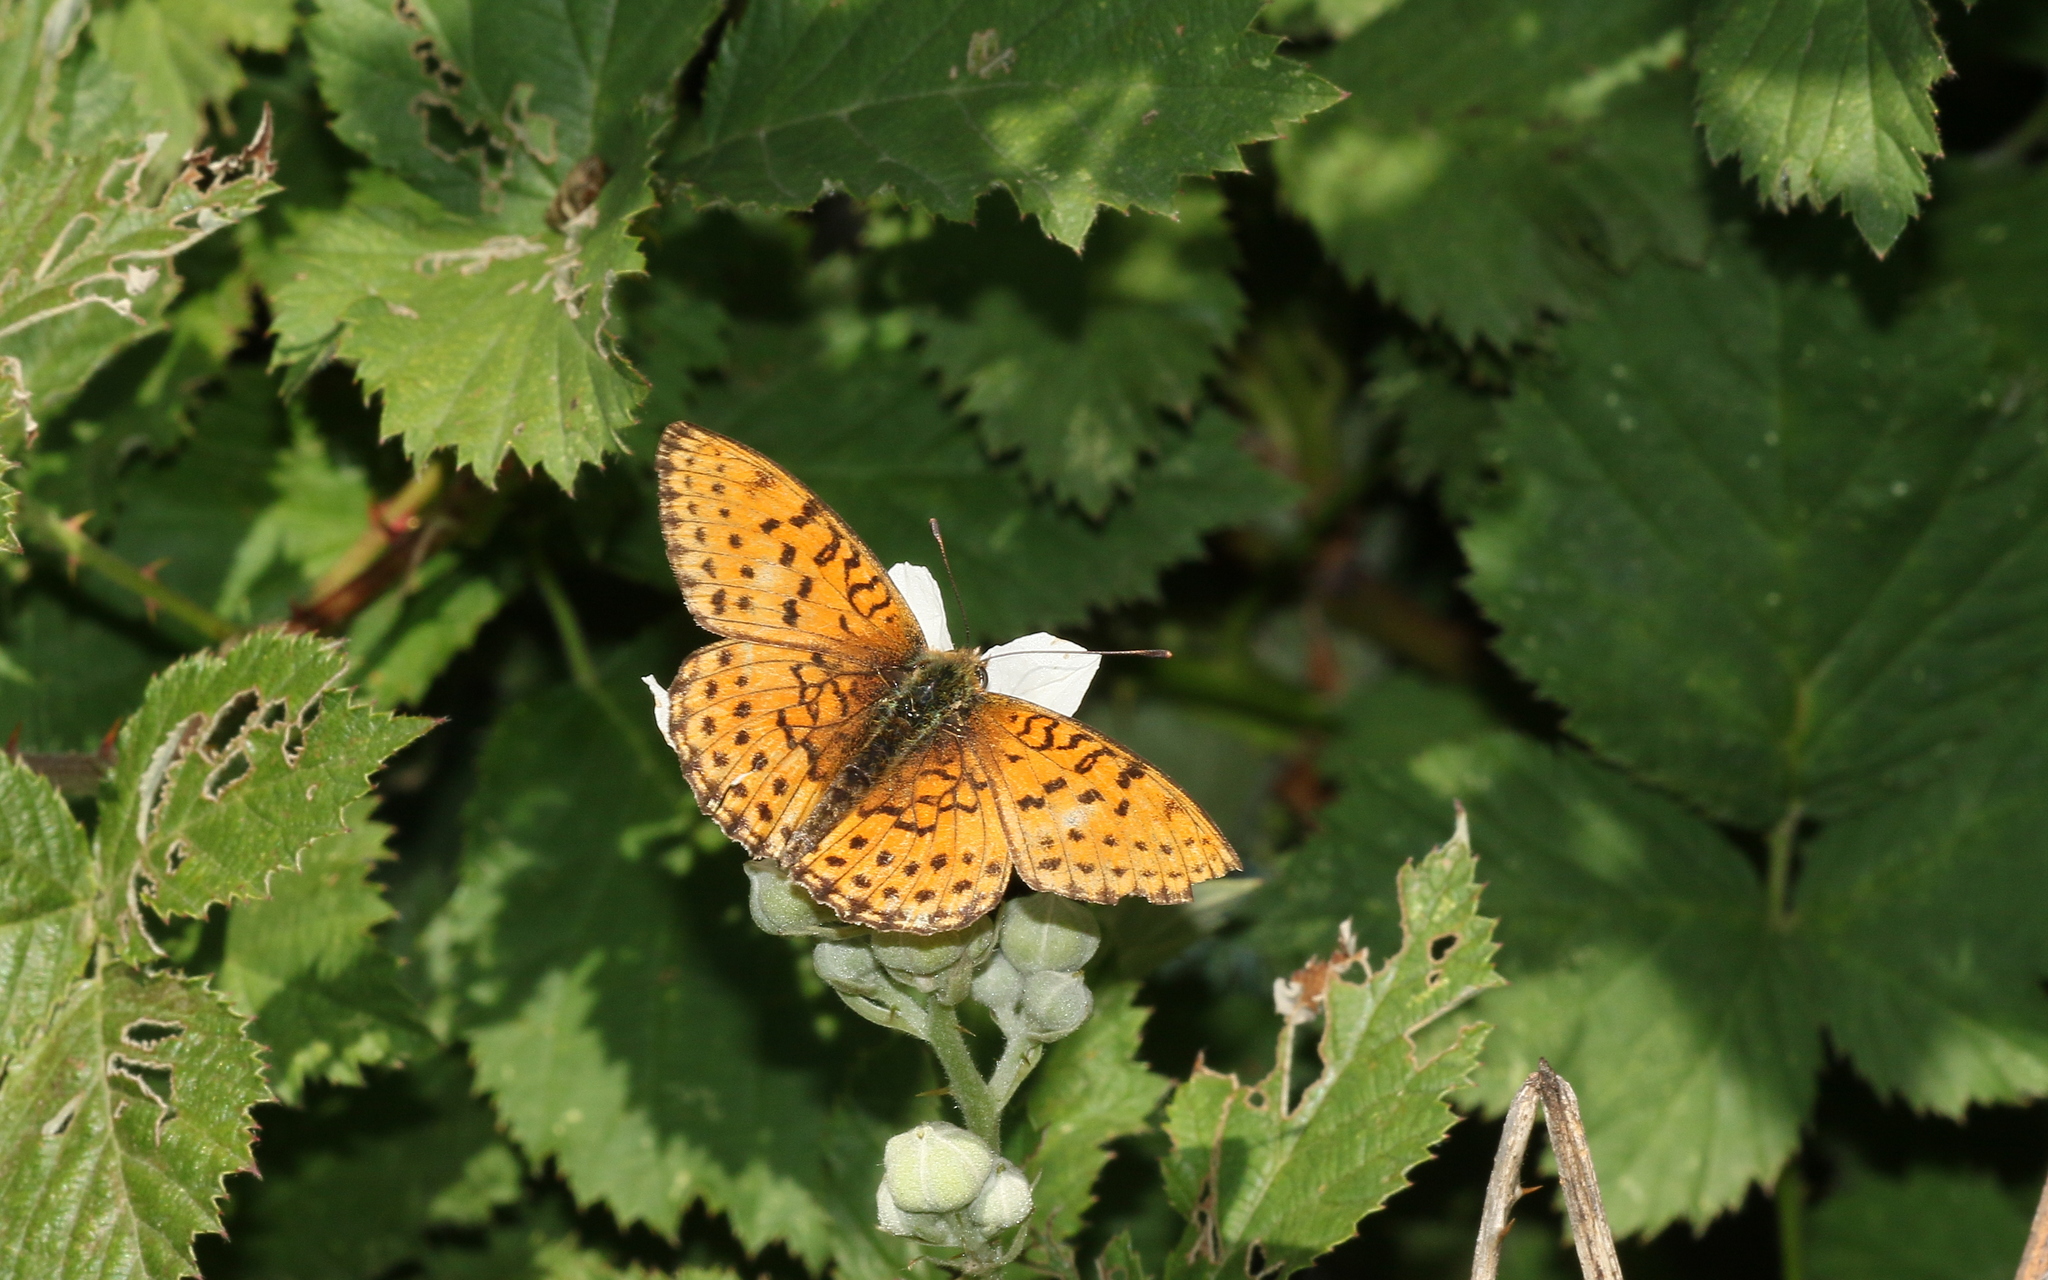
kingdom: Animalia
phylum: Arthropoda
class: Insecta
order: Lepidoptera
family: Nymphalidae
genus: Brenthis
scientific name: Brenthis hecate
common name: Twin-spot fritillary
